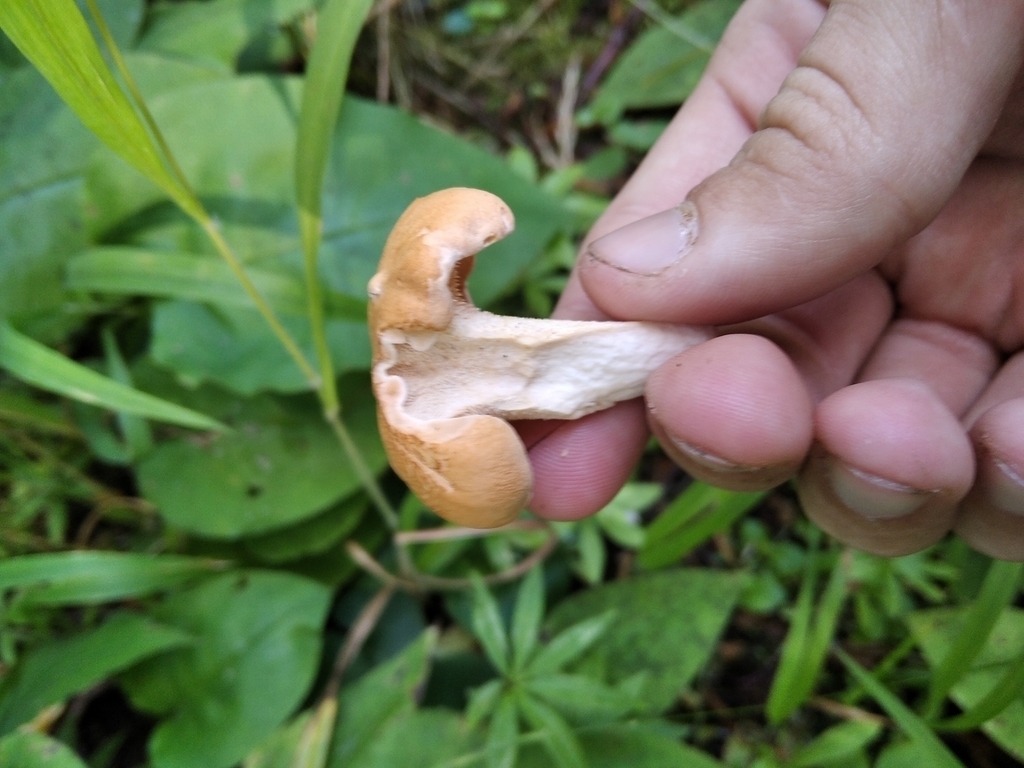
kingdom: Fungi
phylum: Basidiomycota
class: Agaricomycetes
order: Cantharellales
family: Hydnaceae
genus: Hydnum
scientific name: Hydnum repandum
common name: Wood hedgehog
